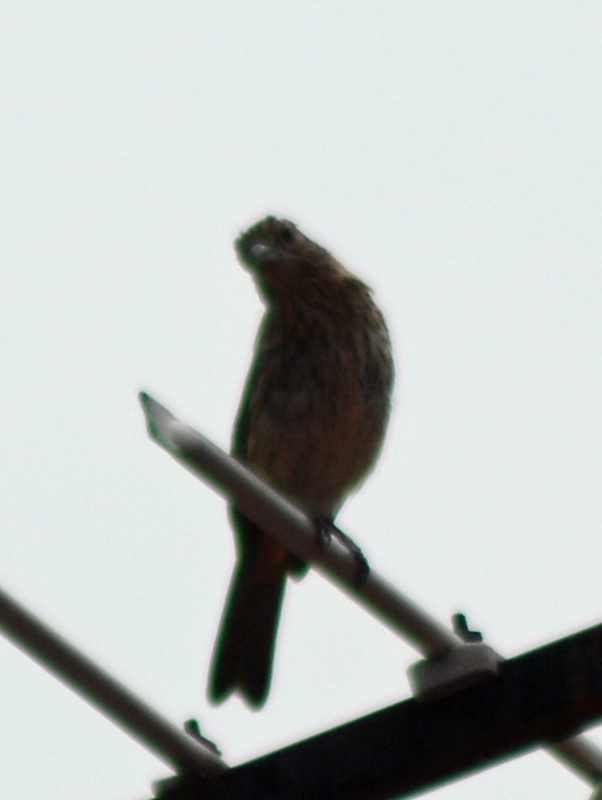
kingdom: Animalia
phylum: Chordata
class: Aves
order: Passeriformes
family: Fringillidae
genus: Haemorhous
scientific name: Haemorhous mexicanus
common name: House finch
